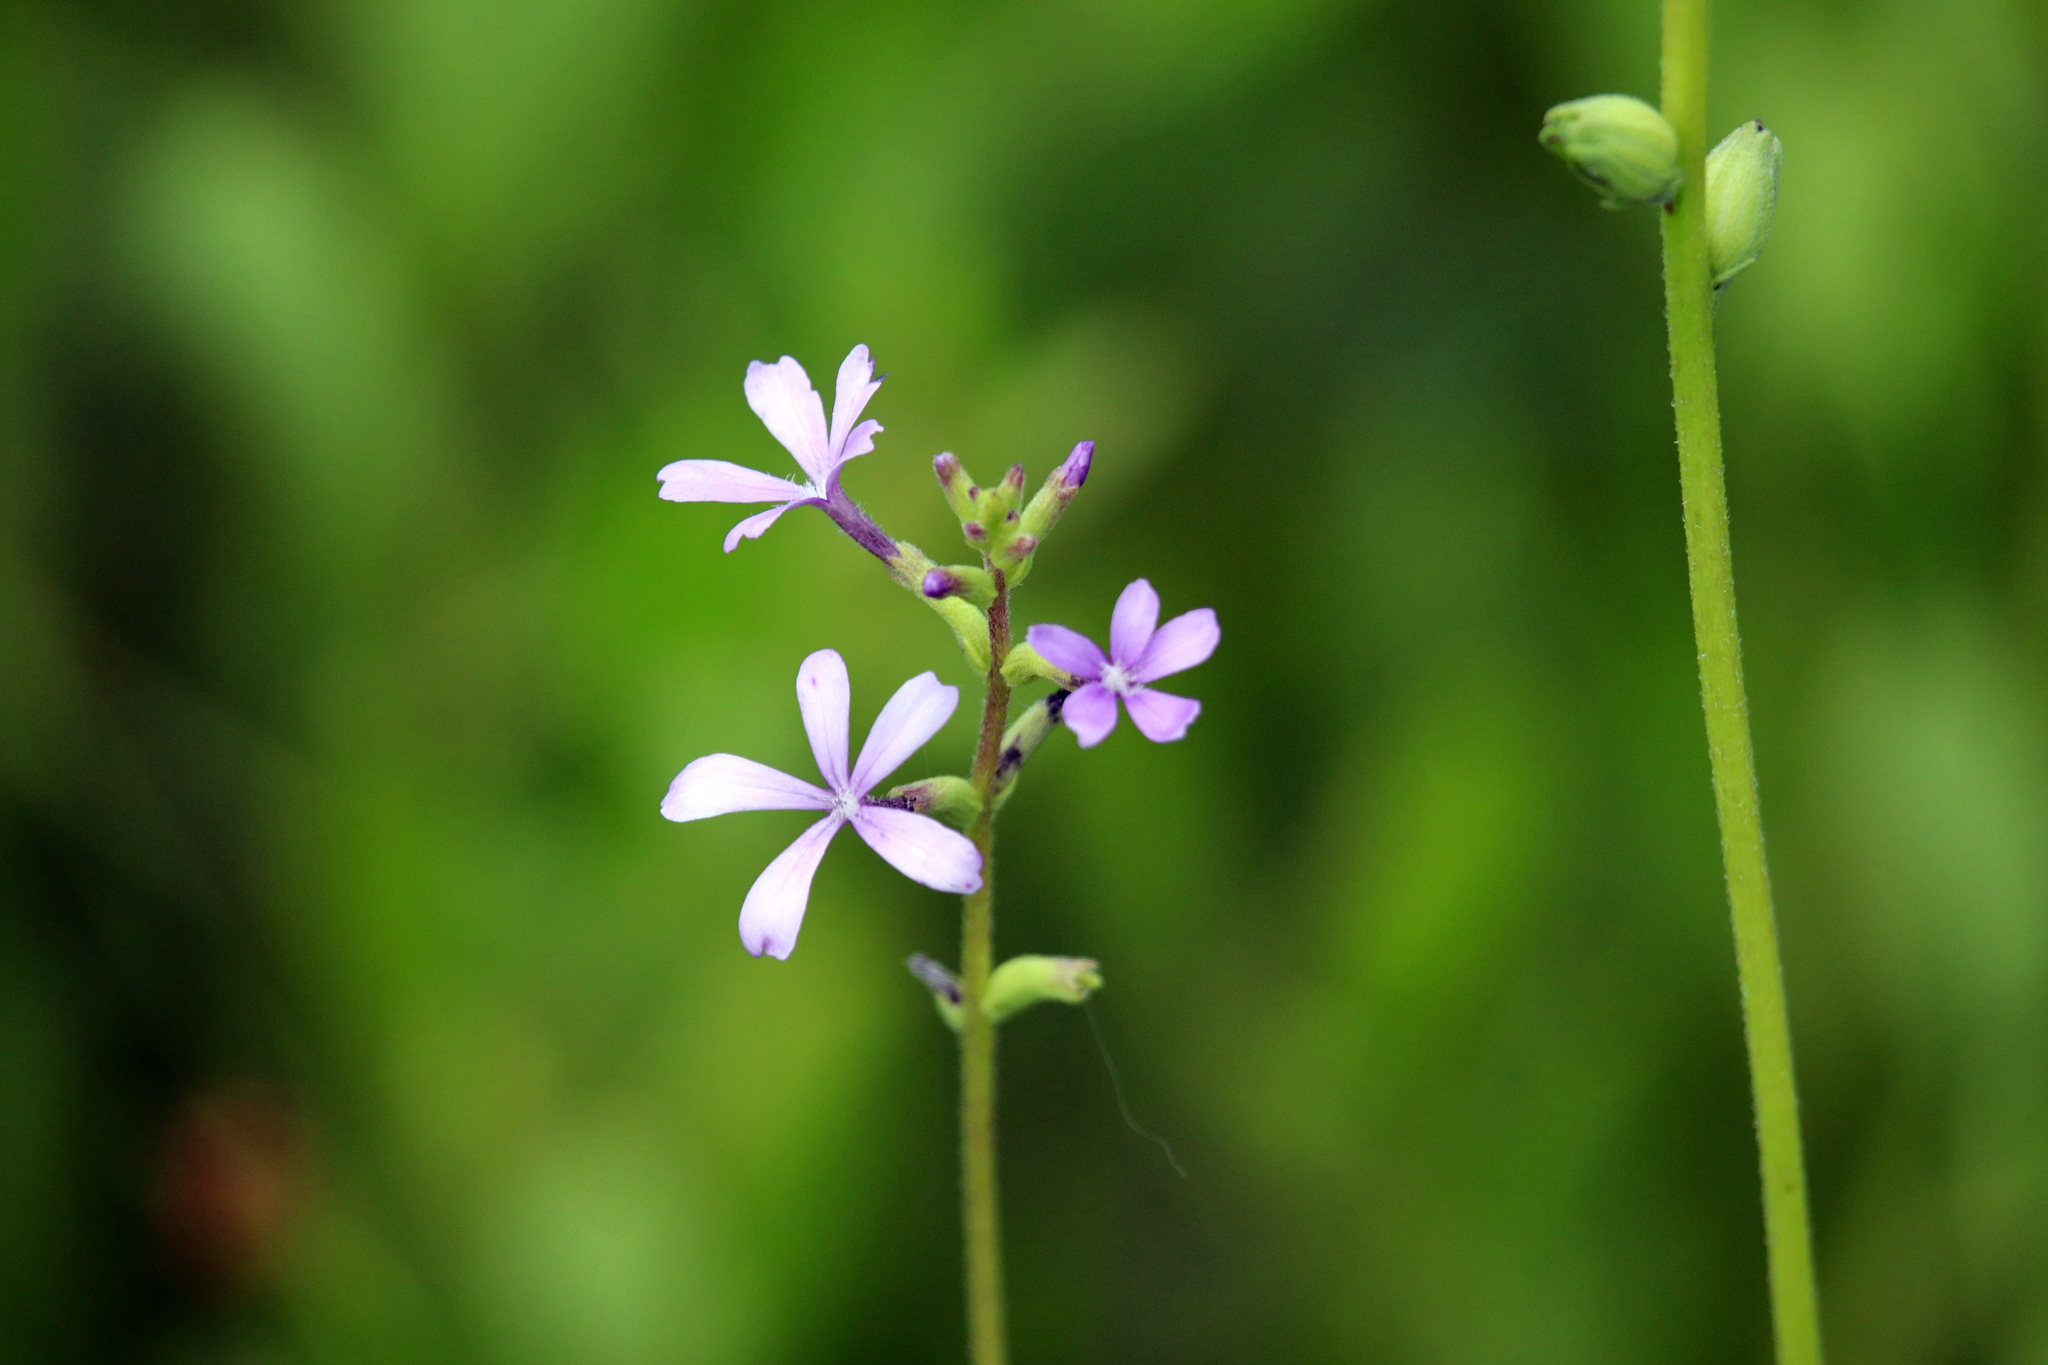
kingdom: Plantae
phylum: Tracheophyta
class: Magnoliopsida
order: Lamiales
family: Orobanchaceae
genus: Buchnera
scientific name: Buchnera floridana
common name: Florida bluehearts
